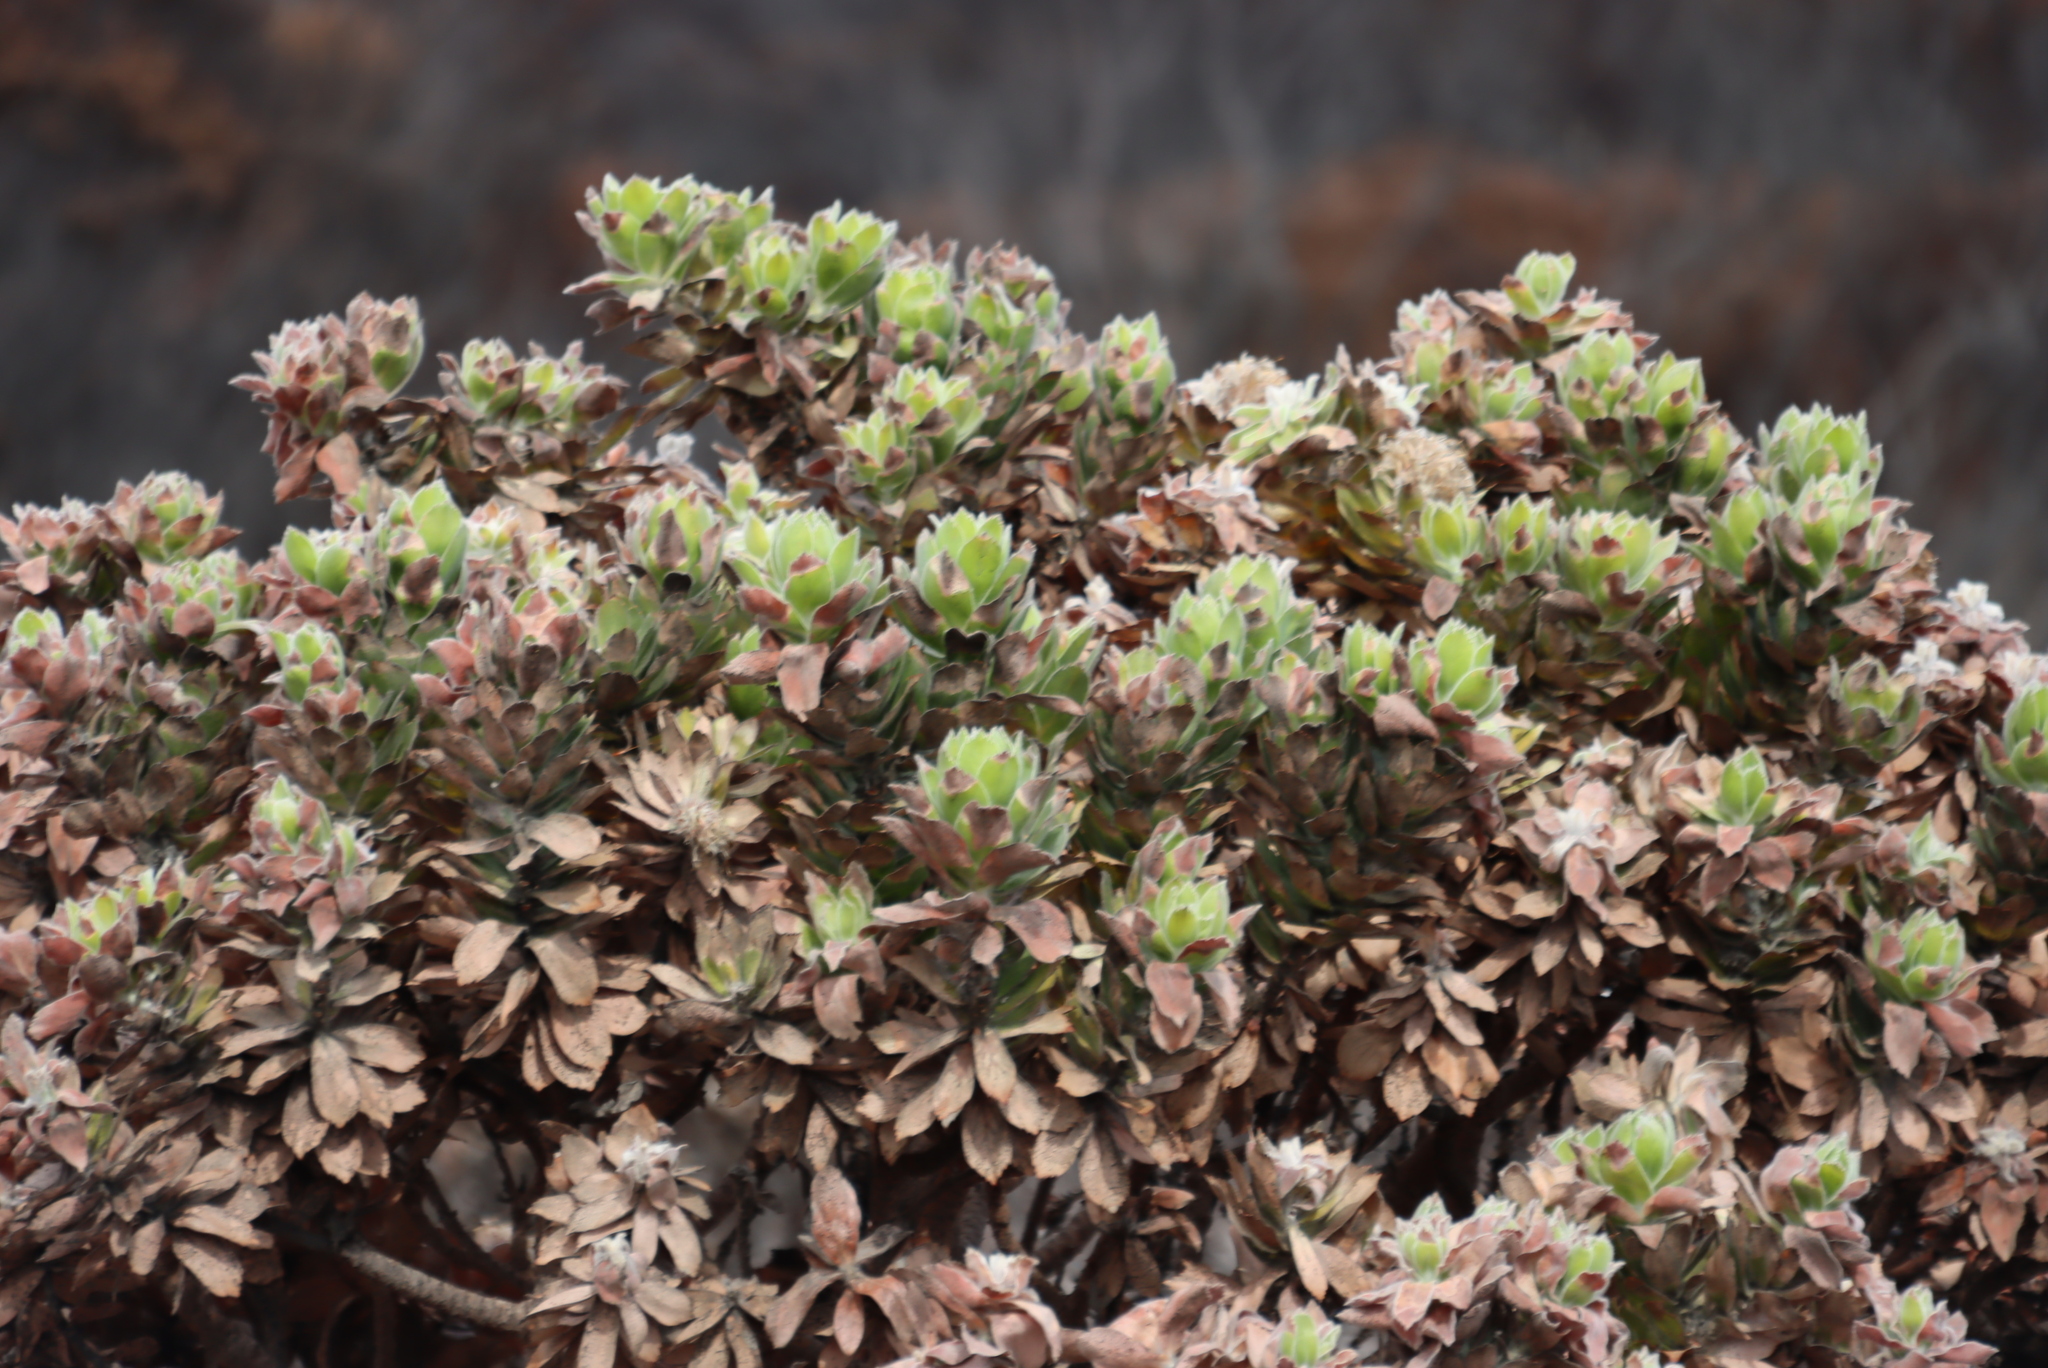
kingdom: Plantae
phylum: Tracheophyta
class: Magnoliopsida
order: Proteales
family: Proteaceae
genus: Leucospermum
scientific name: Leucospermum conocarpodendron
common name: Tree pincushion
